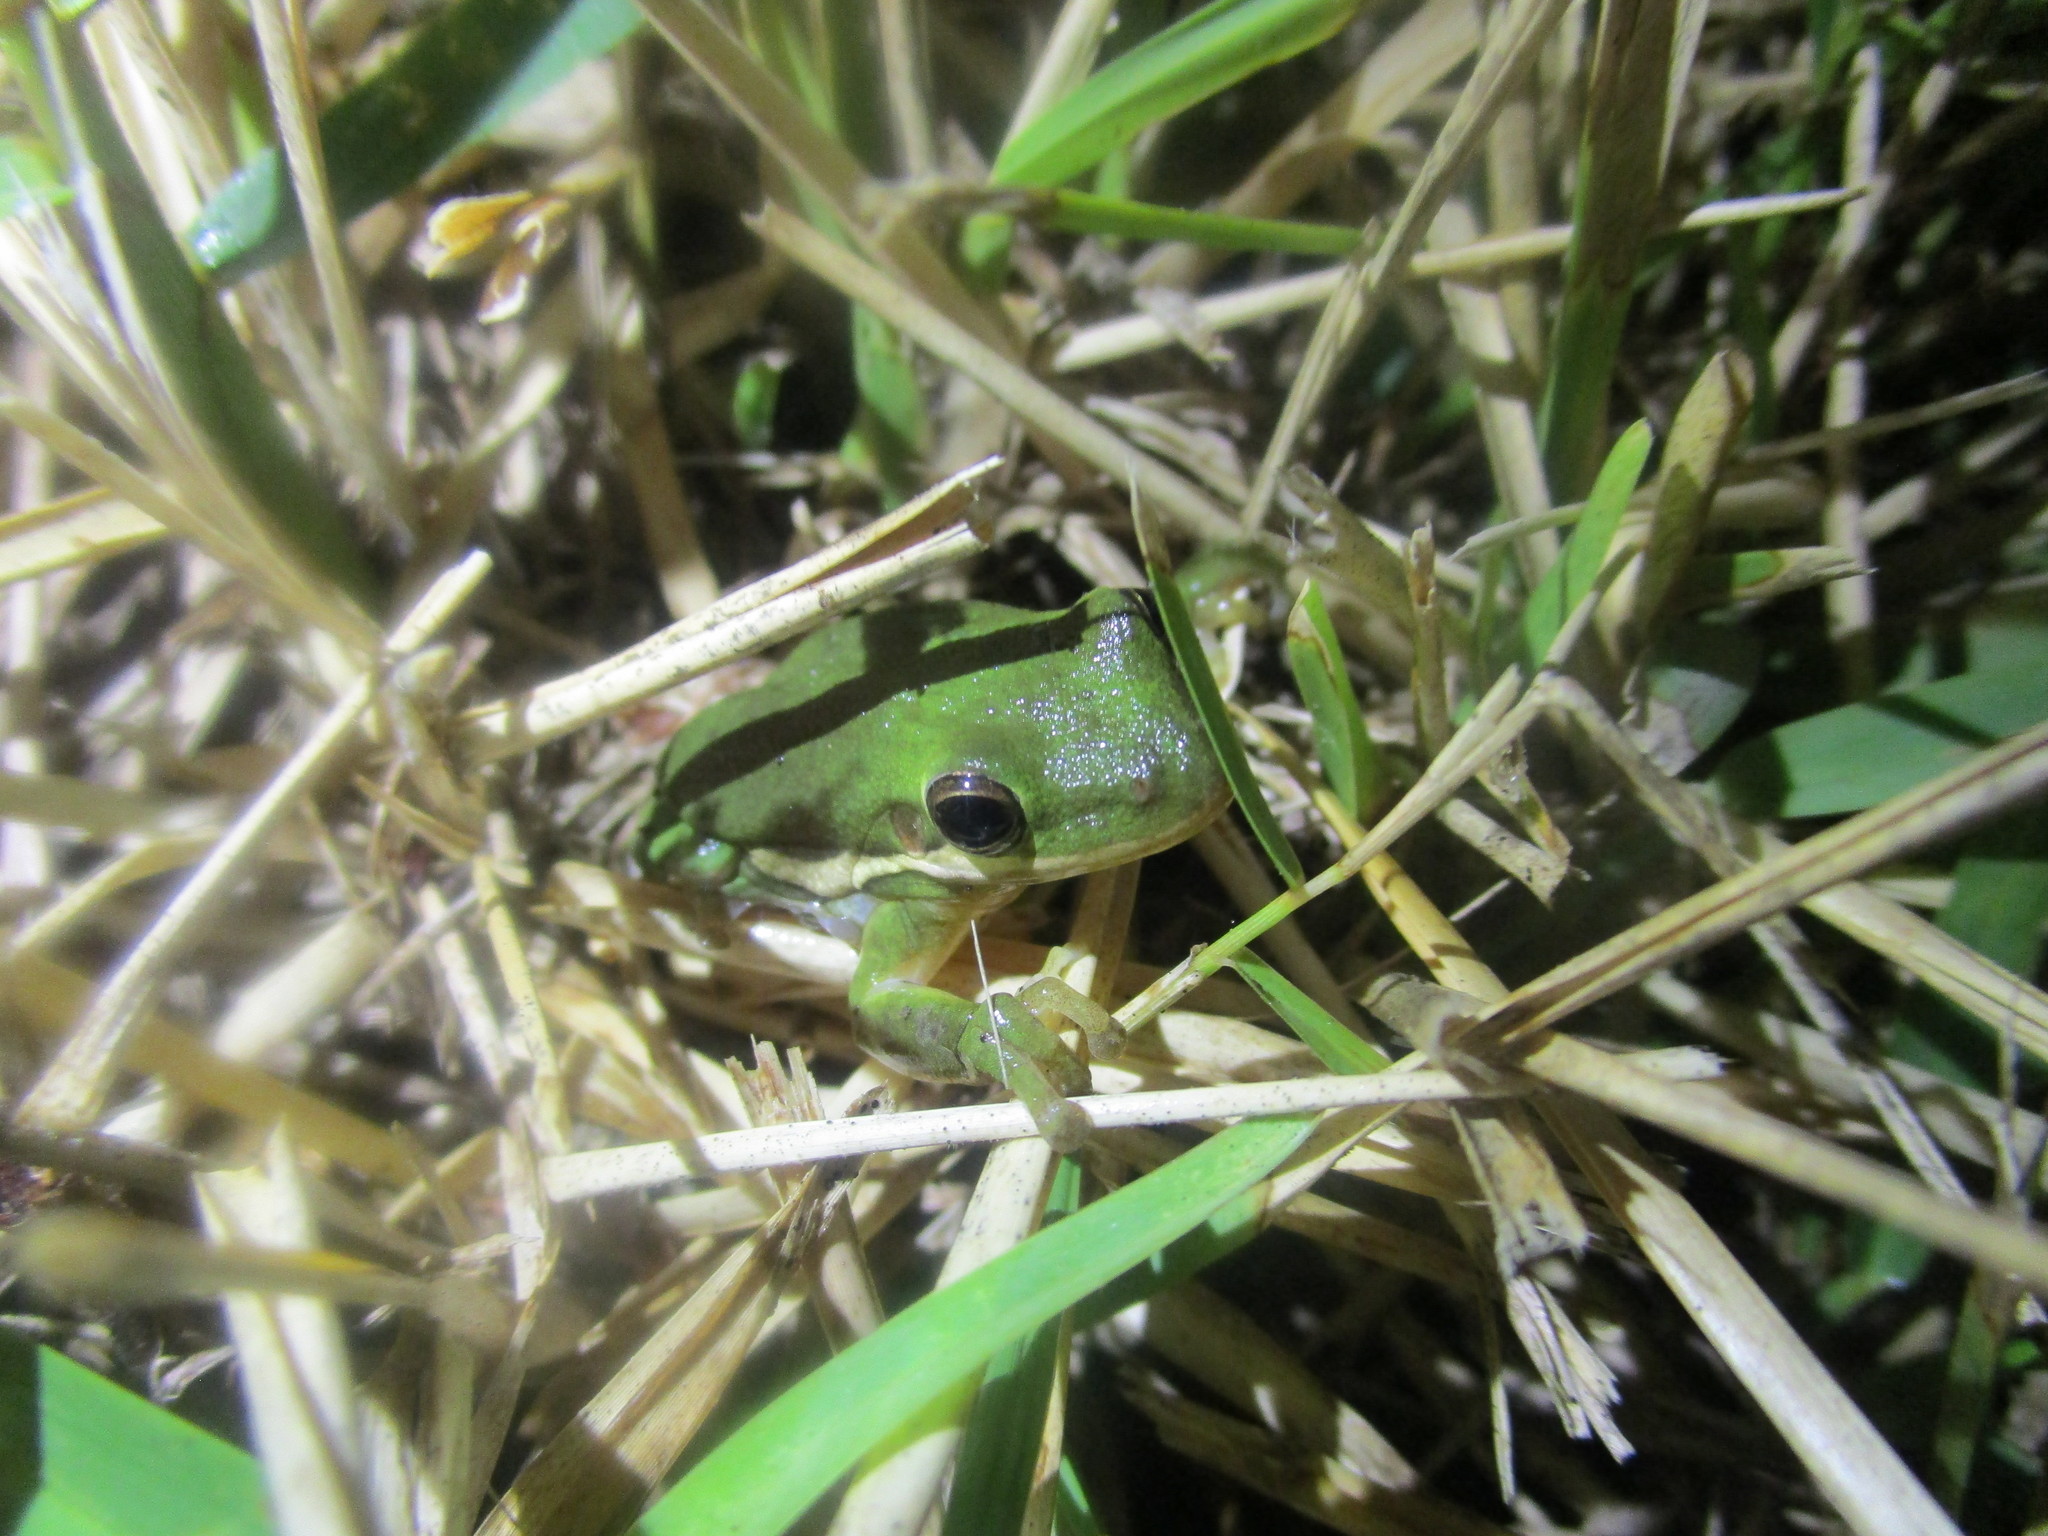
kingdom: Animalia
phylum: Chordata
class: Amphibia
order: Anura
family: Hylidae
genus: Dryophytes
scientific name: Dryophytes cinereus
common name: Green treefrog
